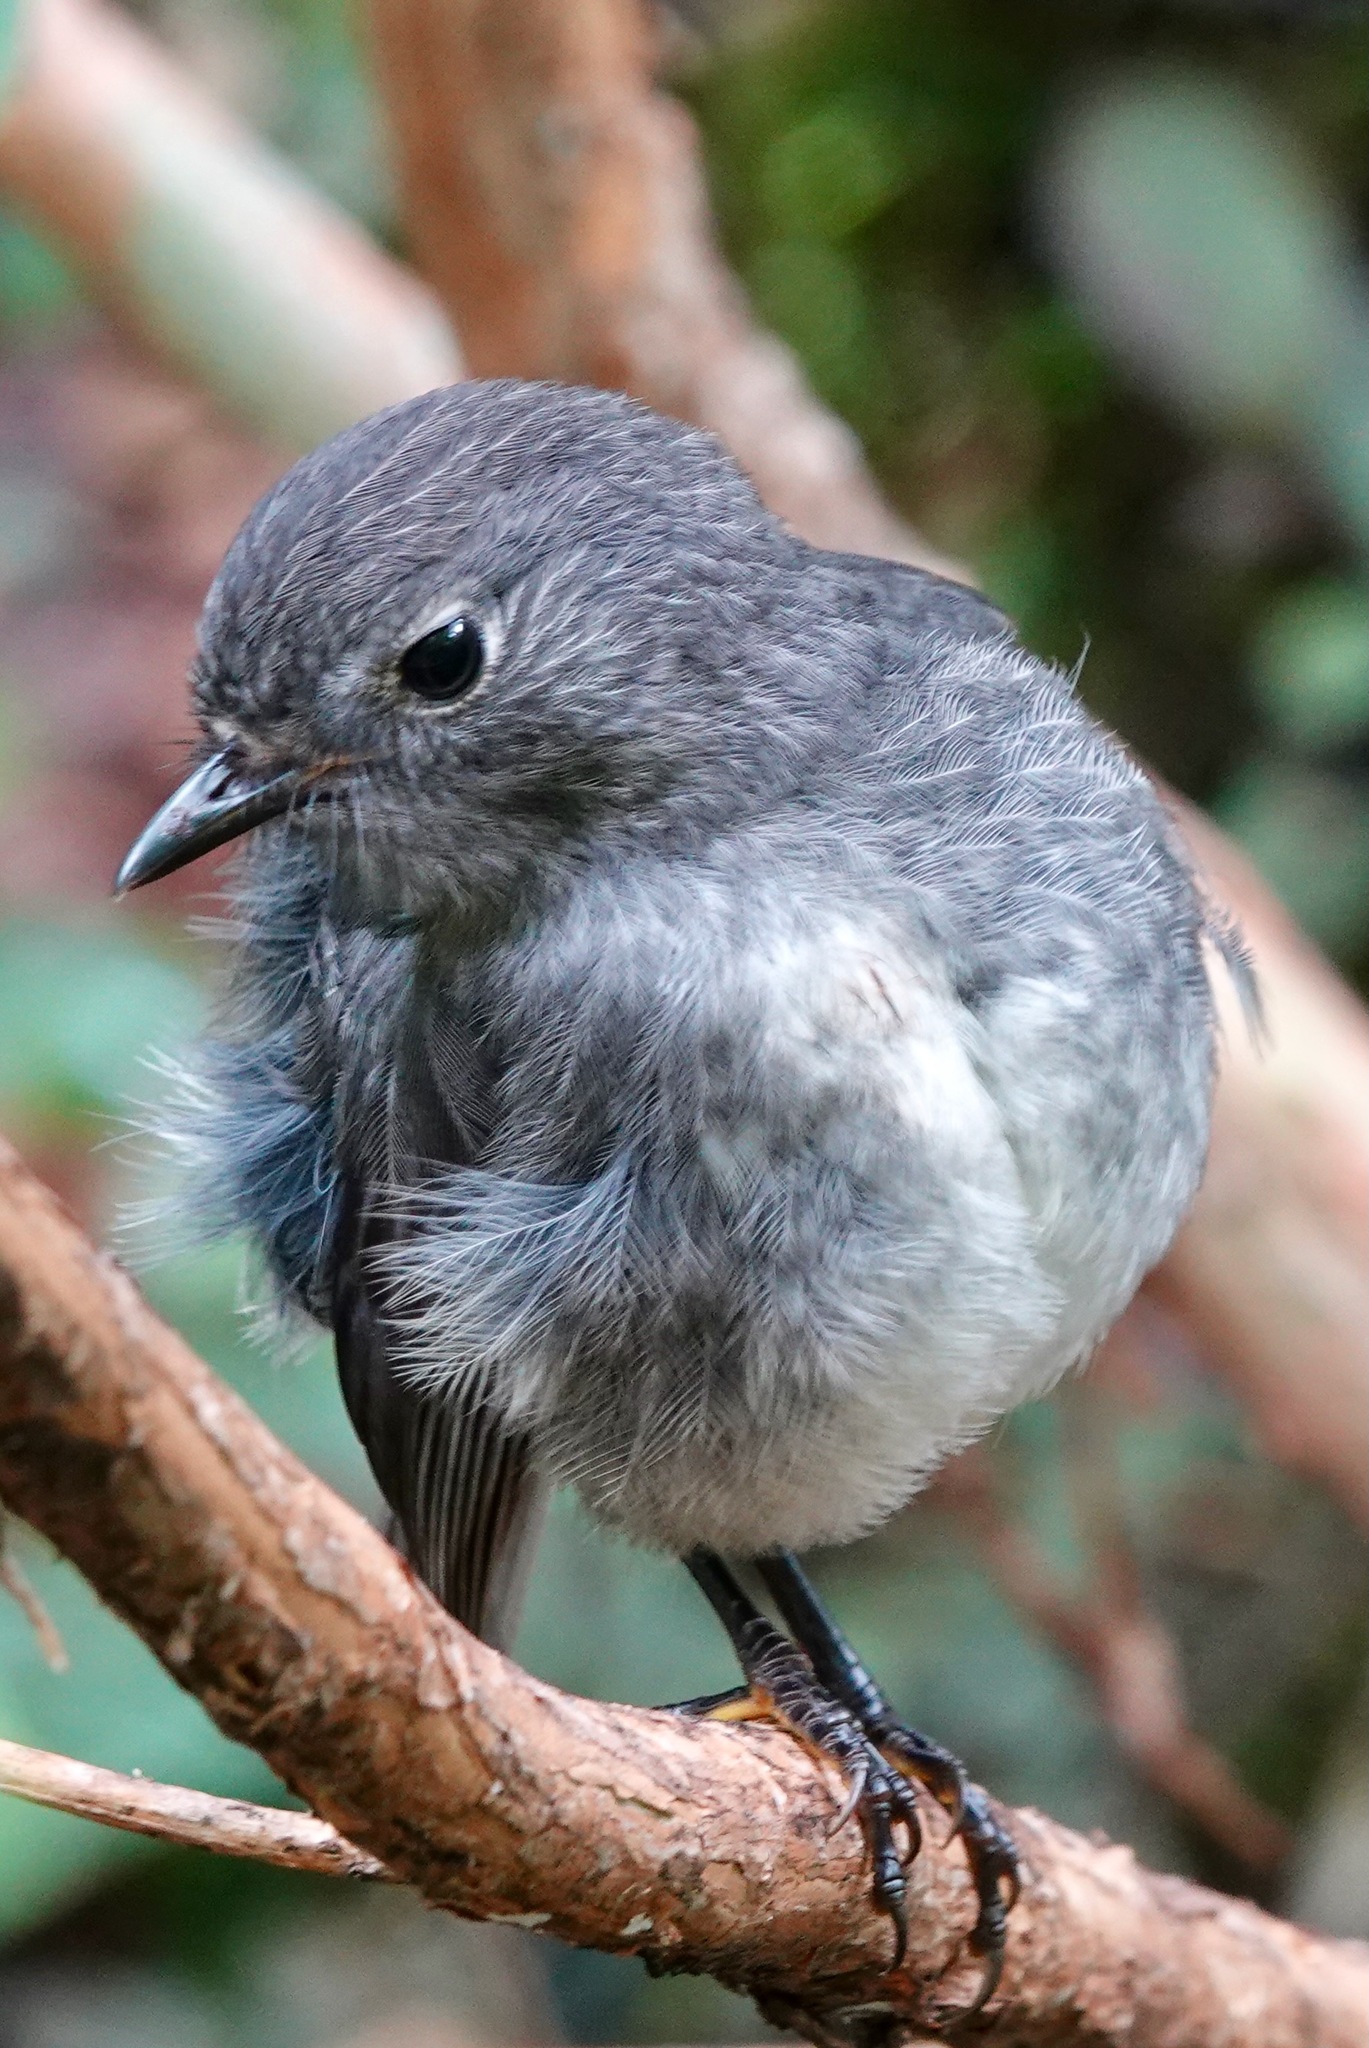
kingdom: Animalia
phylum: Chordata
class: Aves
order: Passeriformes
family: Petroicidae
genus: Petroica
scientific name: Petroica australis
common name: New zealand robin
